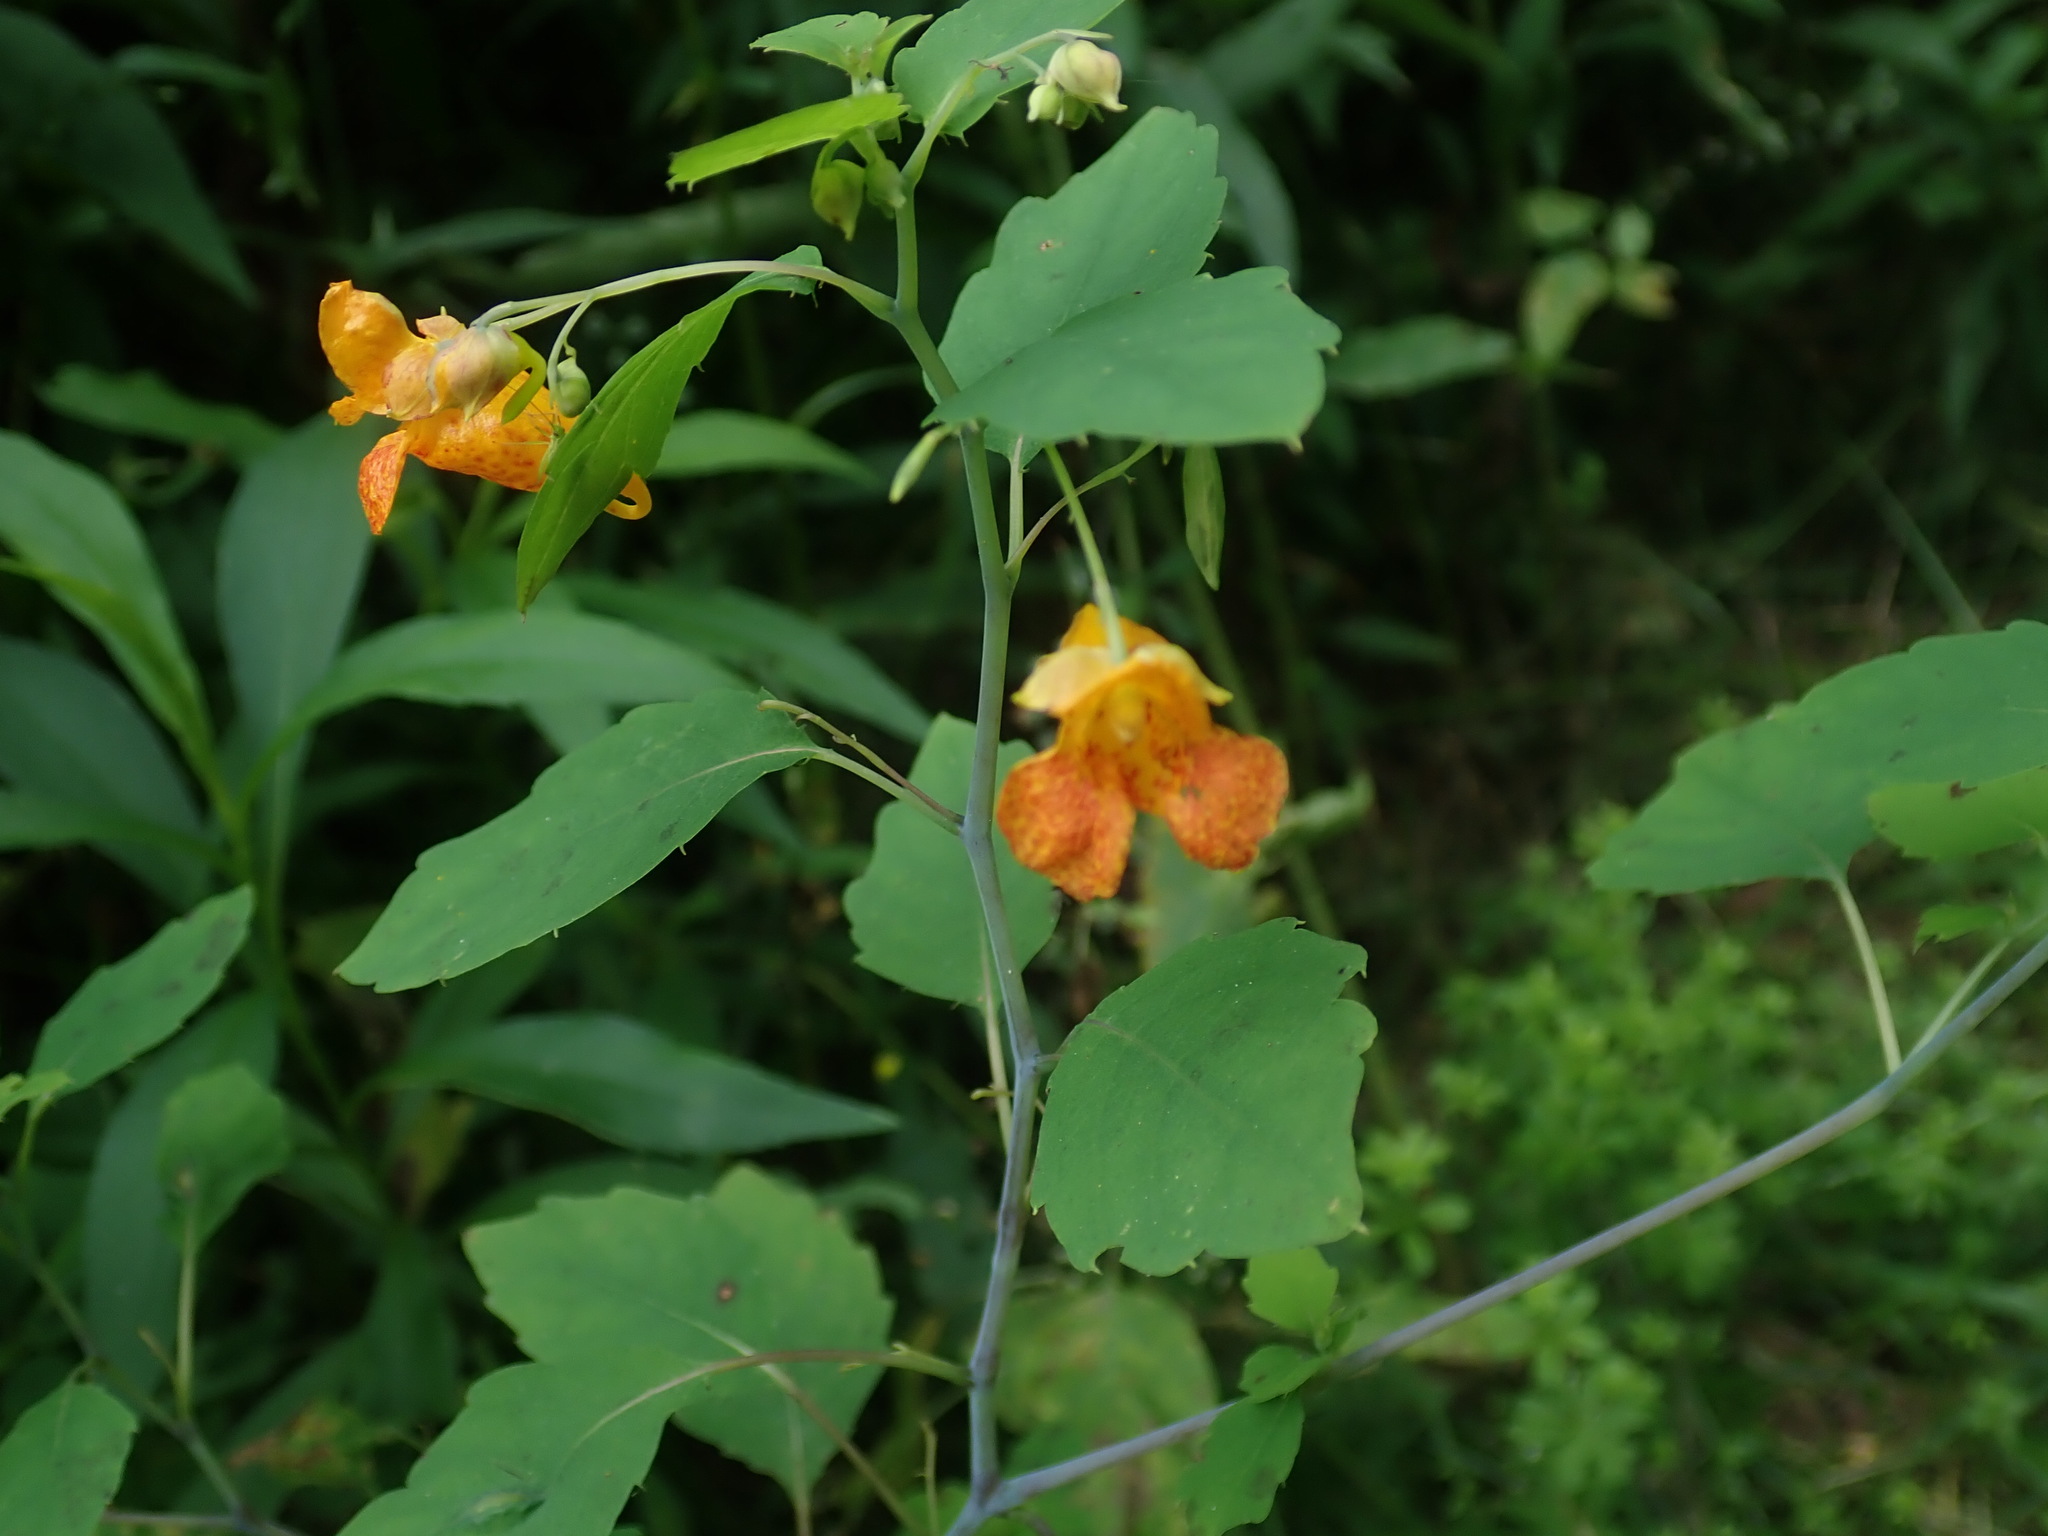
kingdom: Plantae
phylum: Tracheophyta
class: Magnoliopsida
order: Ericales
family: Balsaminaceae
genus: Impatiens
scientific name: Impatiens capensis
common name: Orange balsam
